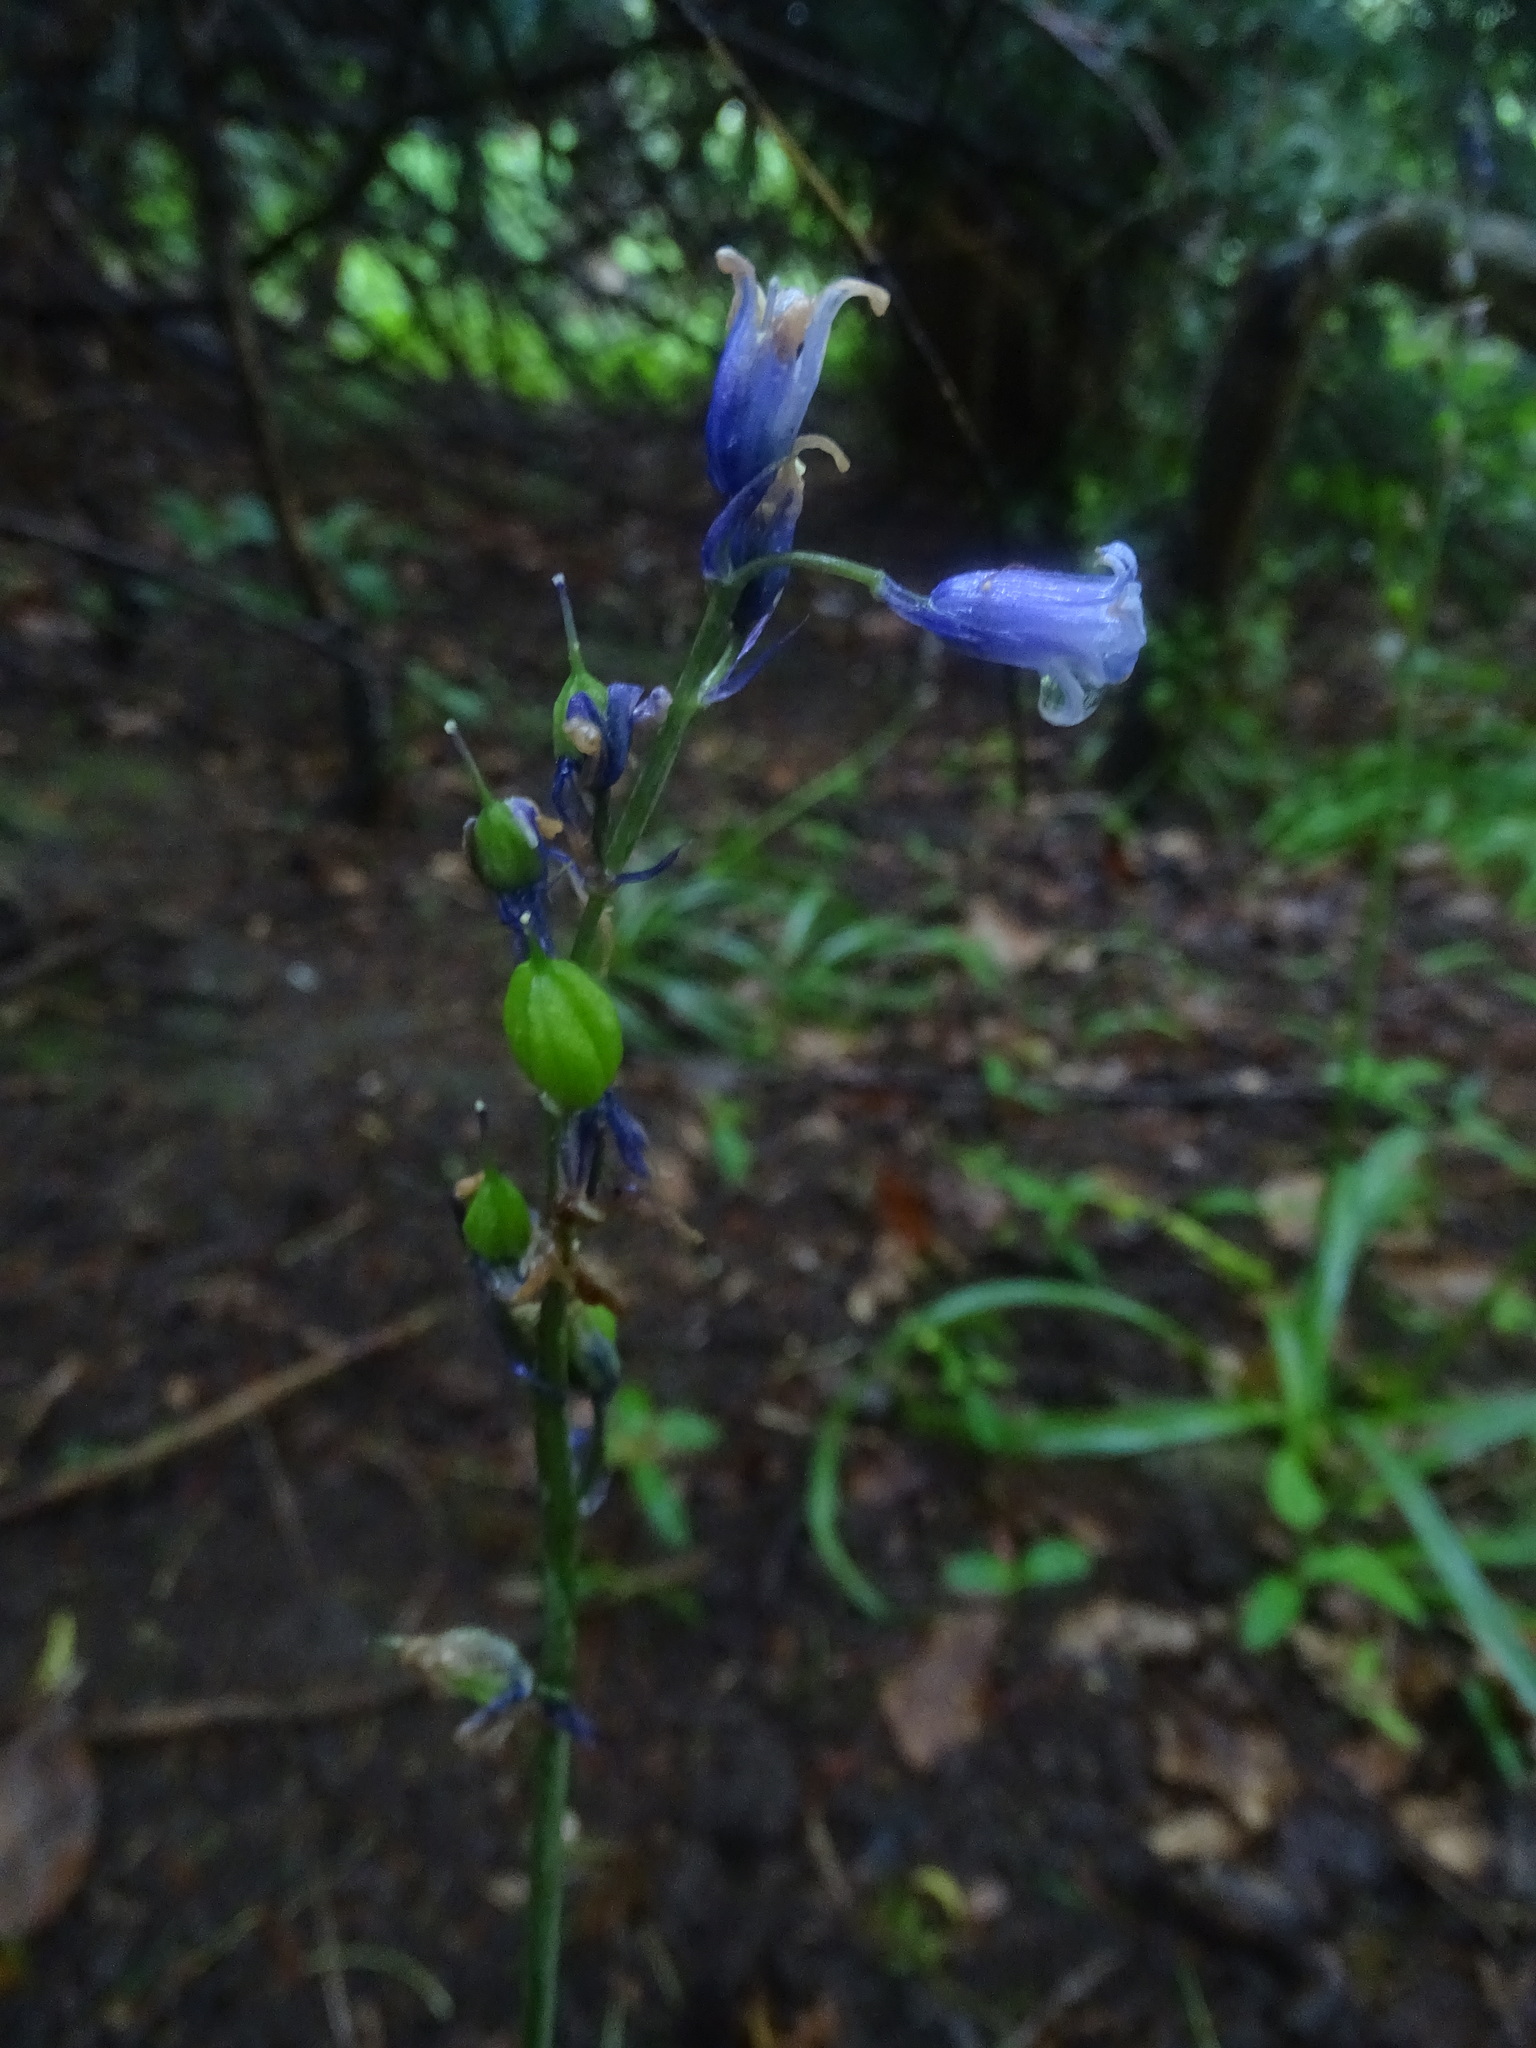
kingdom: Plantae
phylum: Tracheophyta
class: Liliopsida
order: Asparagales
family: Asparagaceae
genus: Hyacinthoides
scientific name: Hyacinthoides non-scripta
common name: Bluebell
